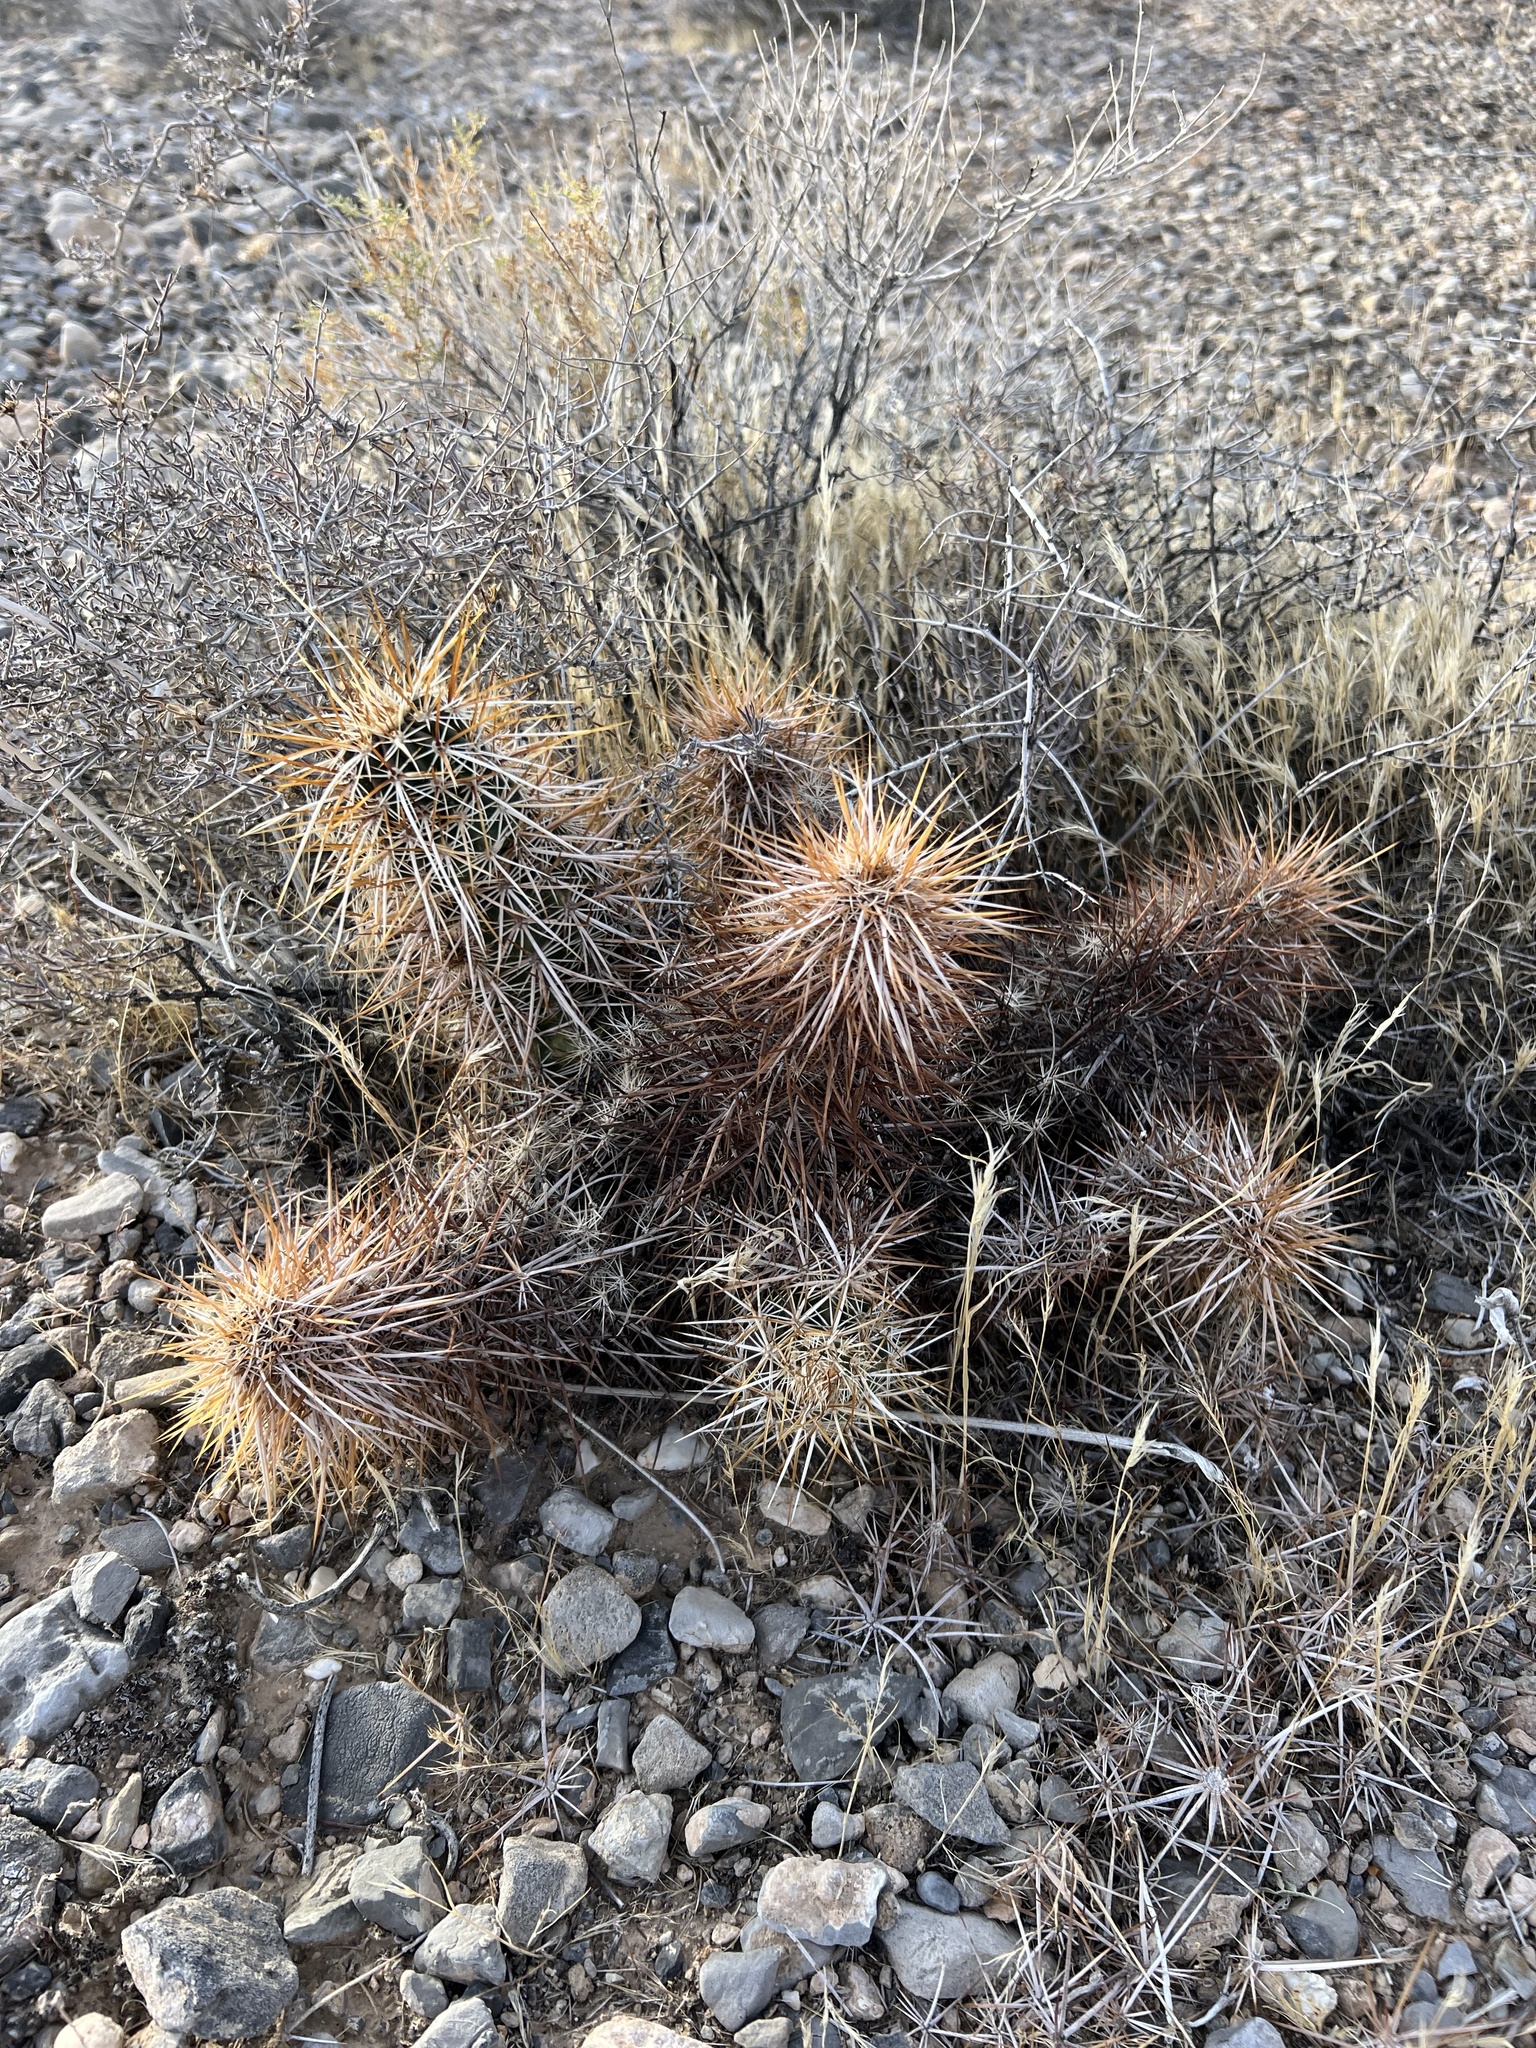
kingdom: Plantae
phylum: Tracheophyta
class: Magnoliopsida
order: Caryophyllales
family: Cactaceae
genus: Echinocereus
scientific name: Echinocereus engelmannii
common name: Engelmann's hedgehog cactus
